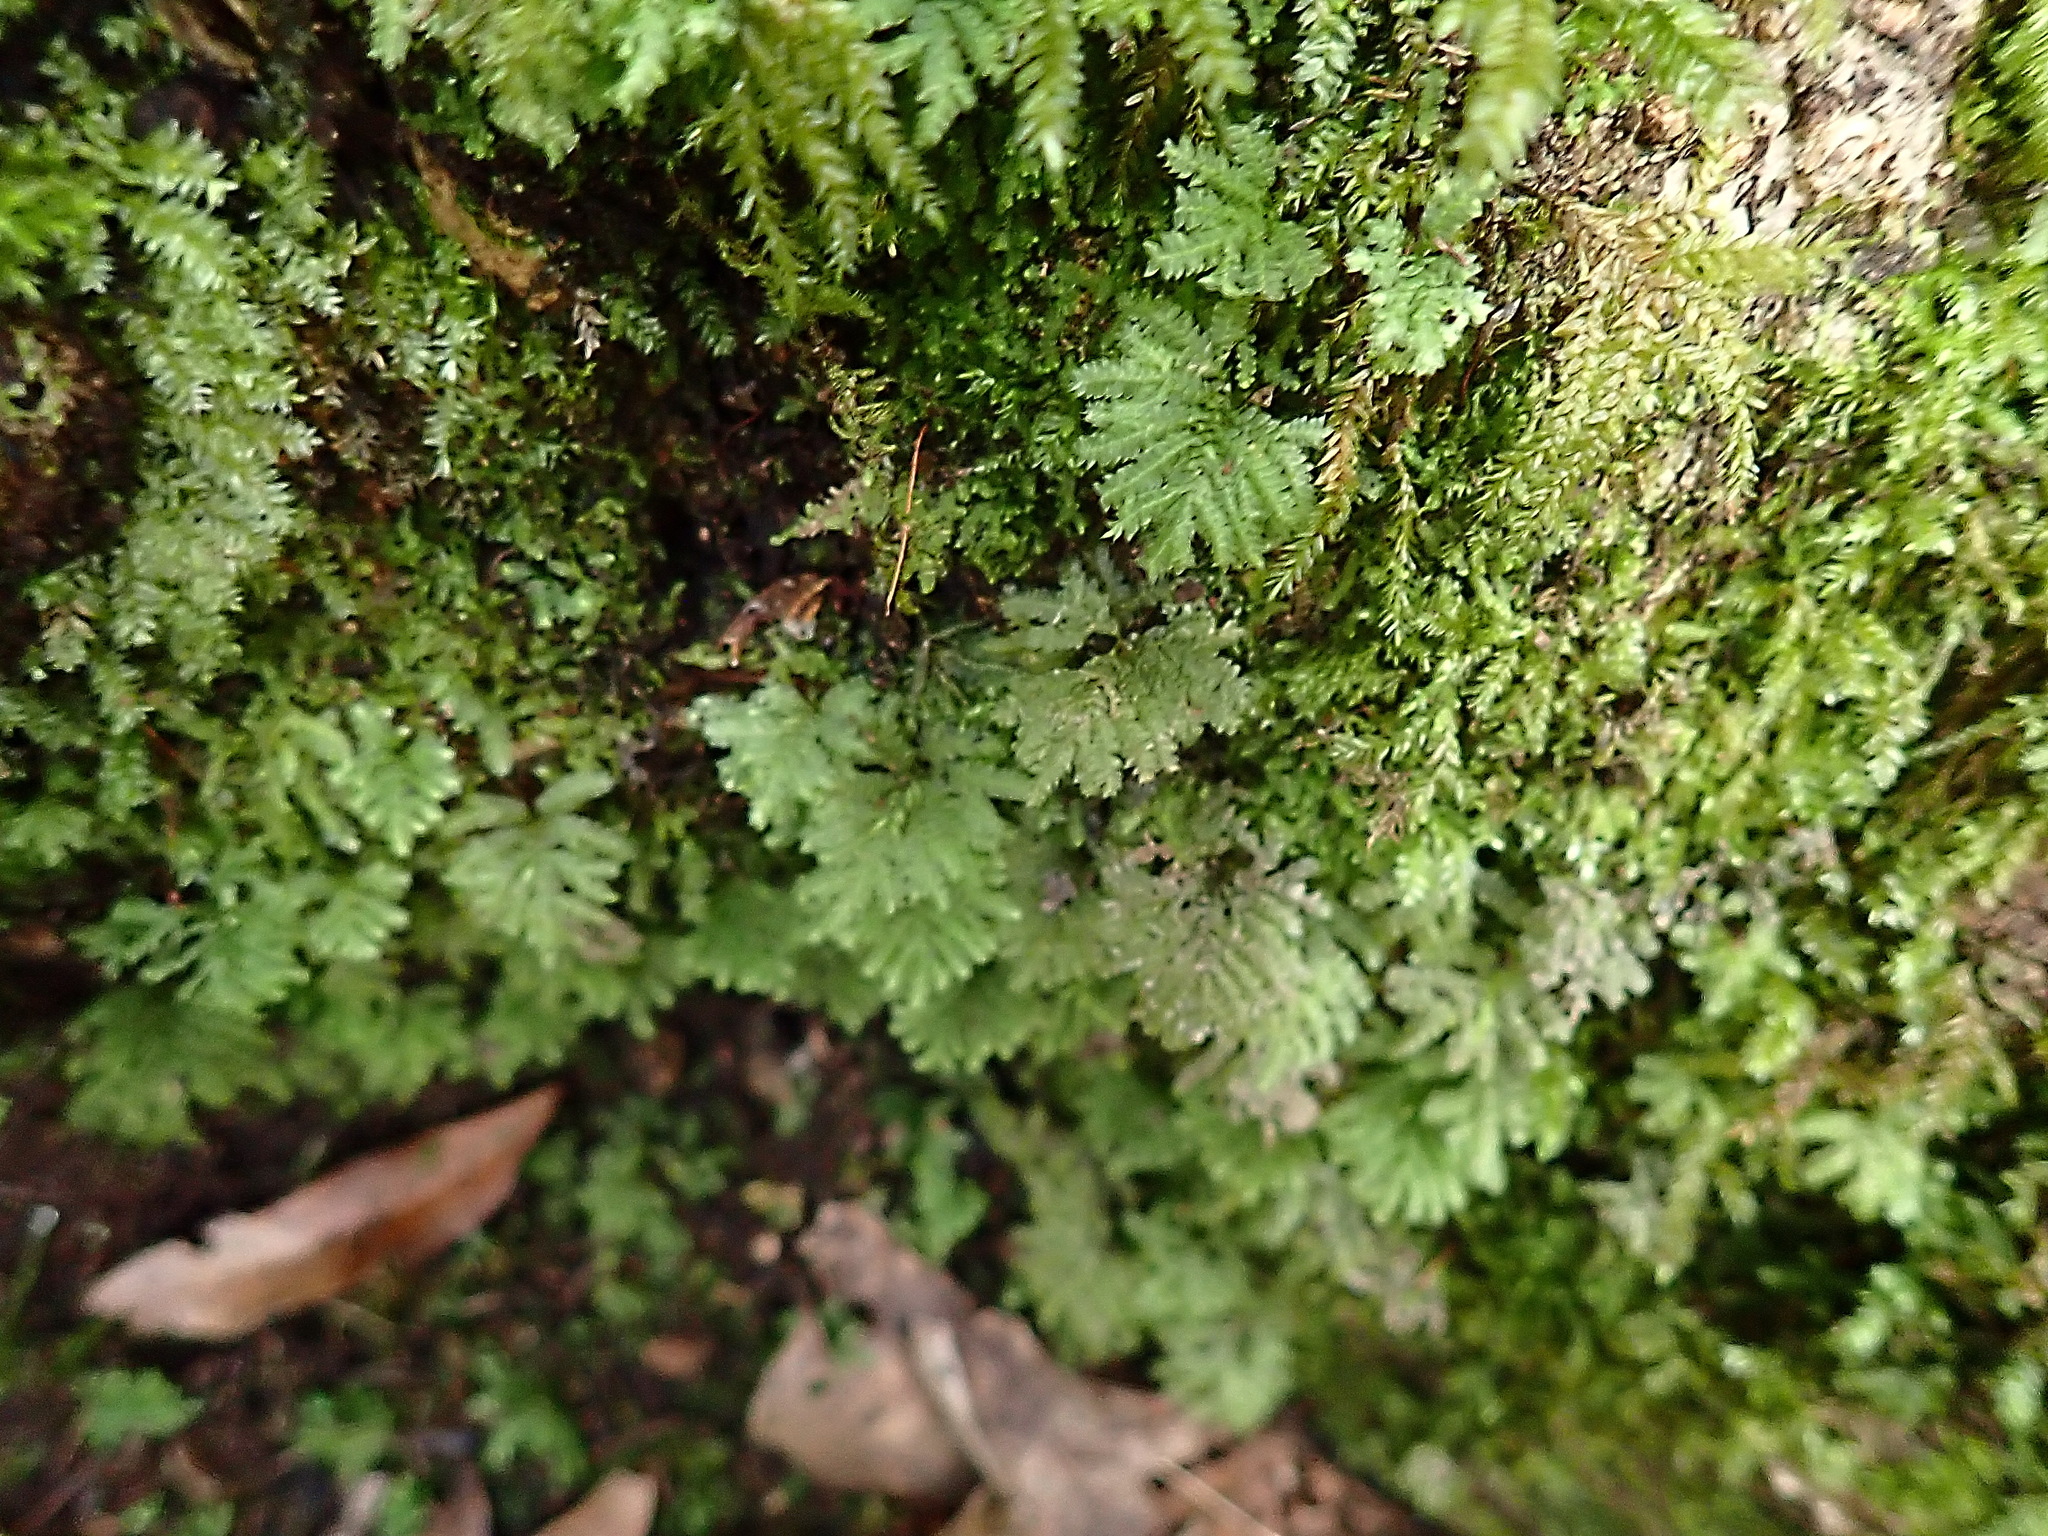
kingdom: Plantae
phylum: Bryophyta
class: Bryopsida
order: Hypopterygiales
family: Hypopterygiaceae
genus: Hypopterygium
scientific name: Hypopterygium tamarisci
